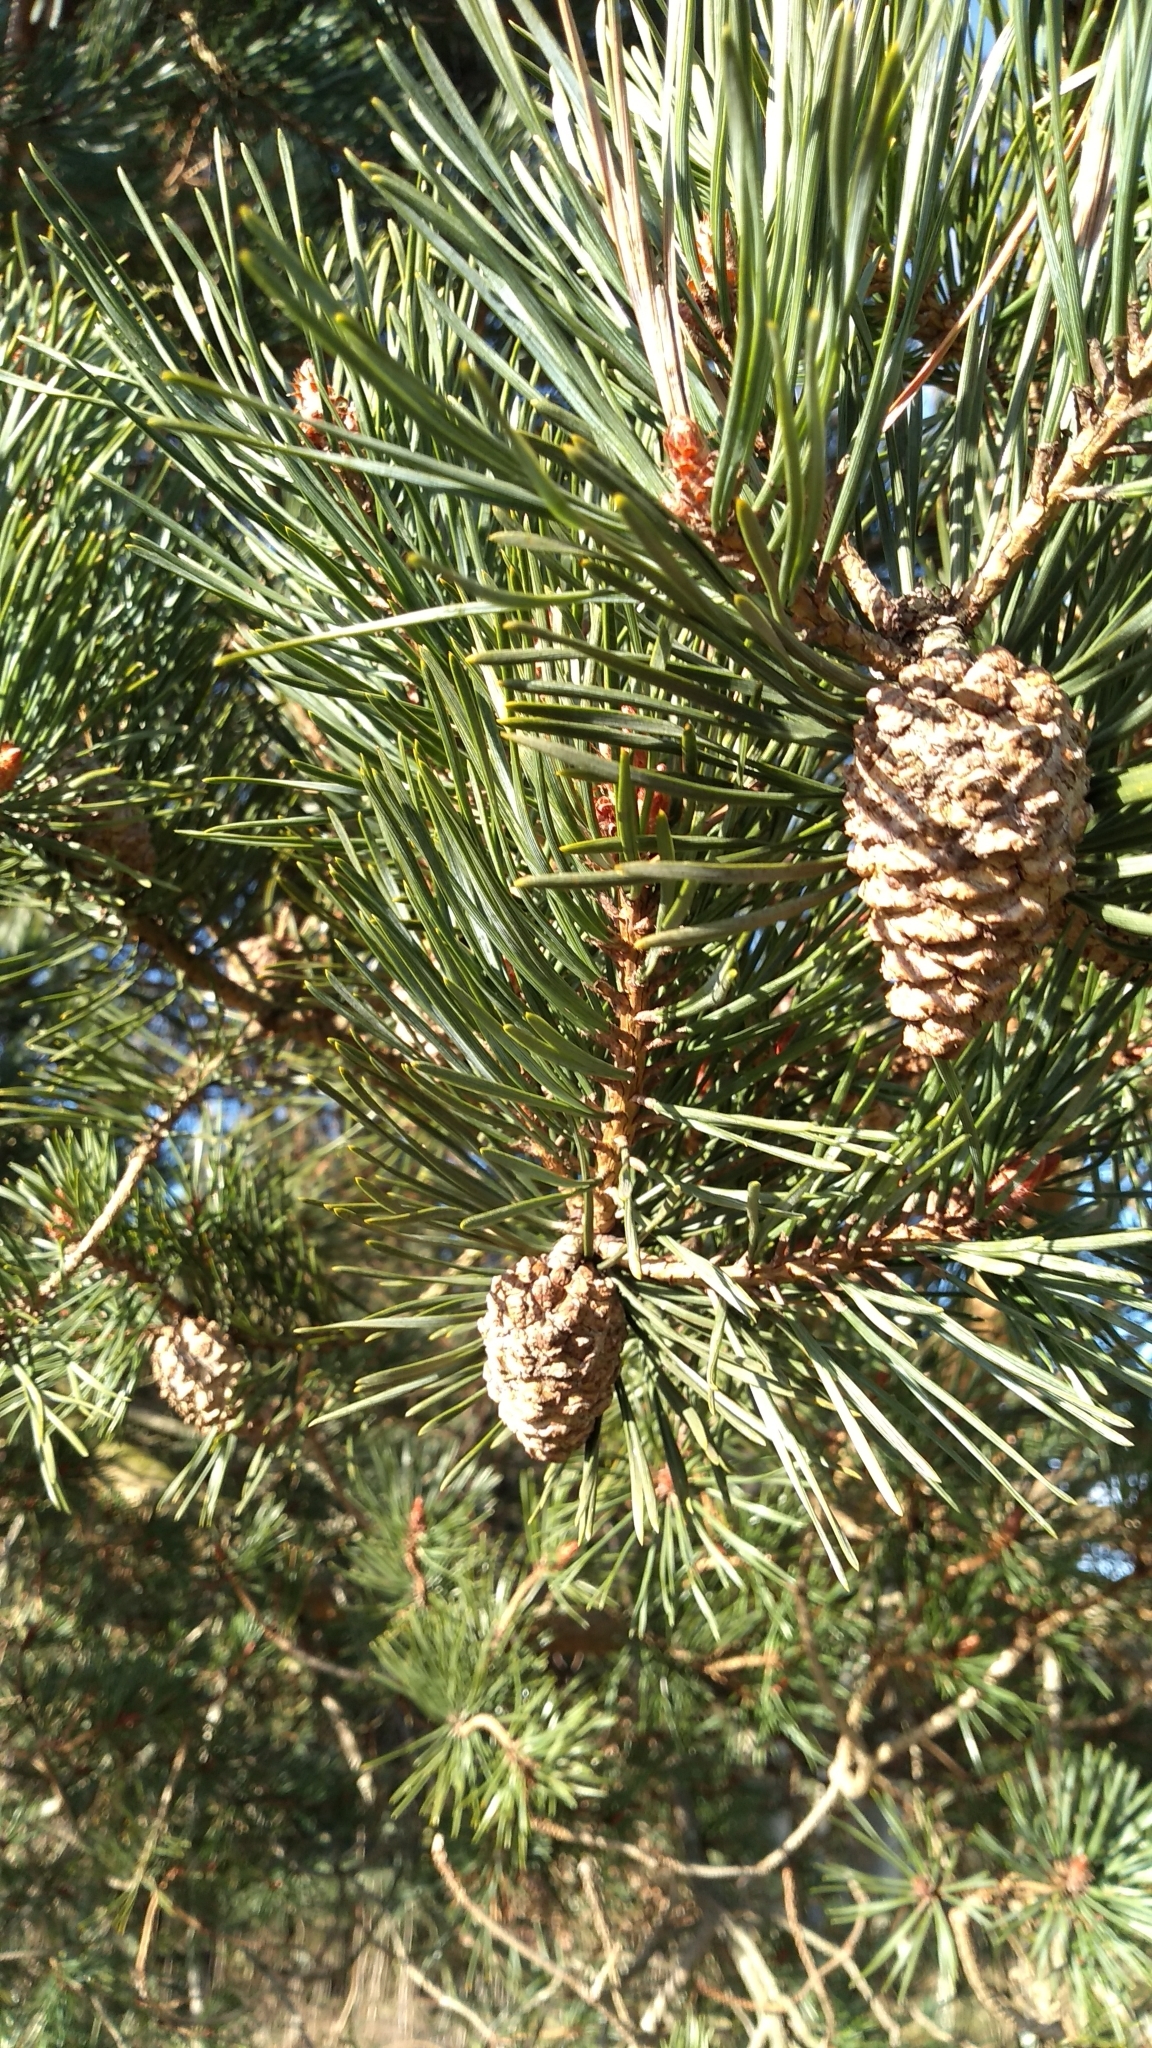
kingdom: Plantae
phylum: Tracheophyta
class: Pinopsida
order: Pinales
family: Pinaceae
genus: Pinus
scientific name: Pinus sylvestris
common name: Scots pine
